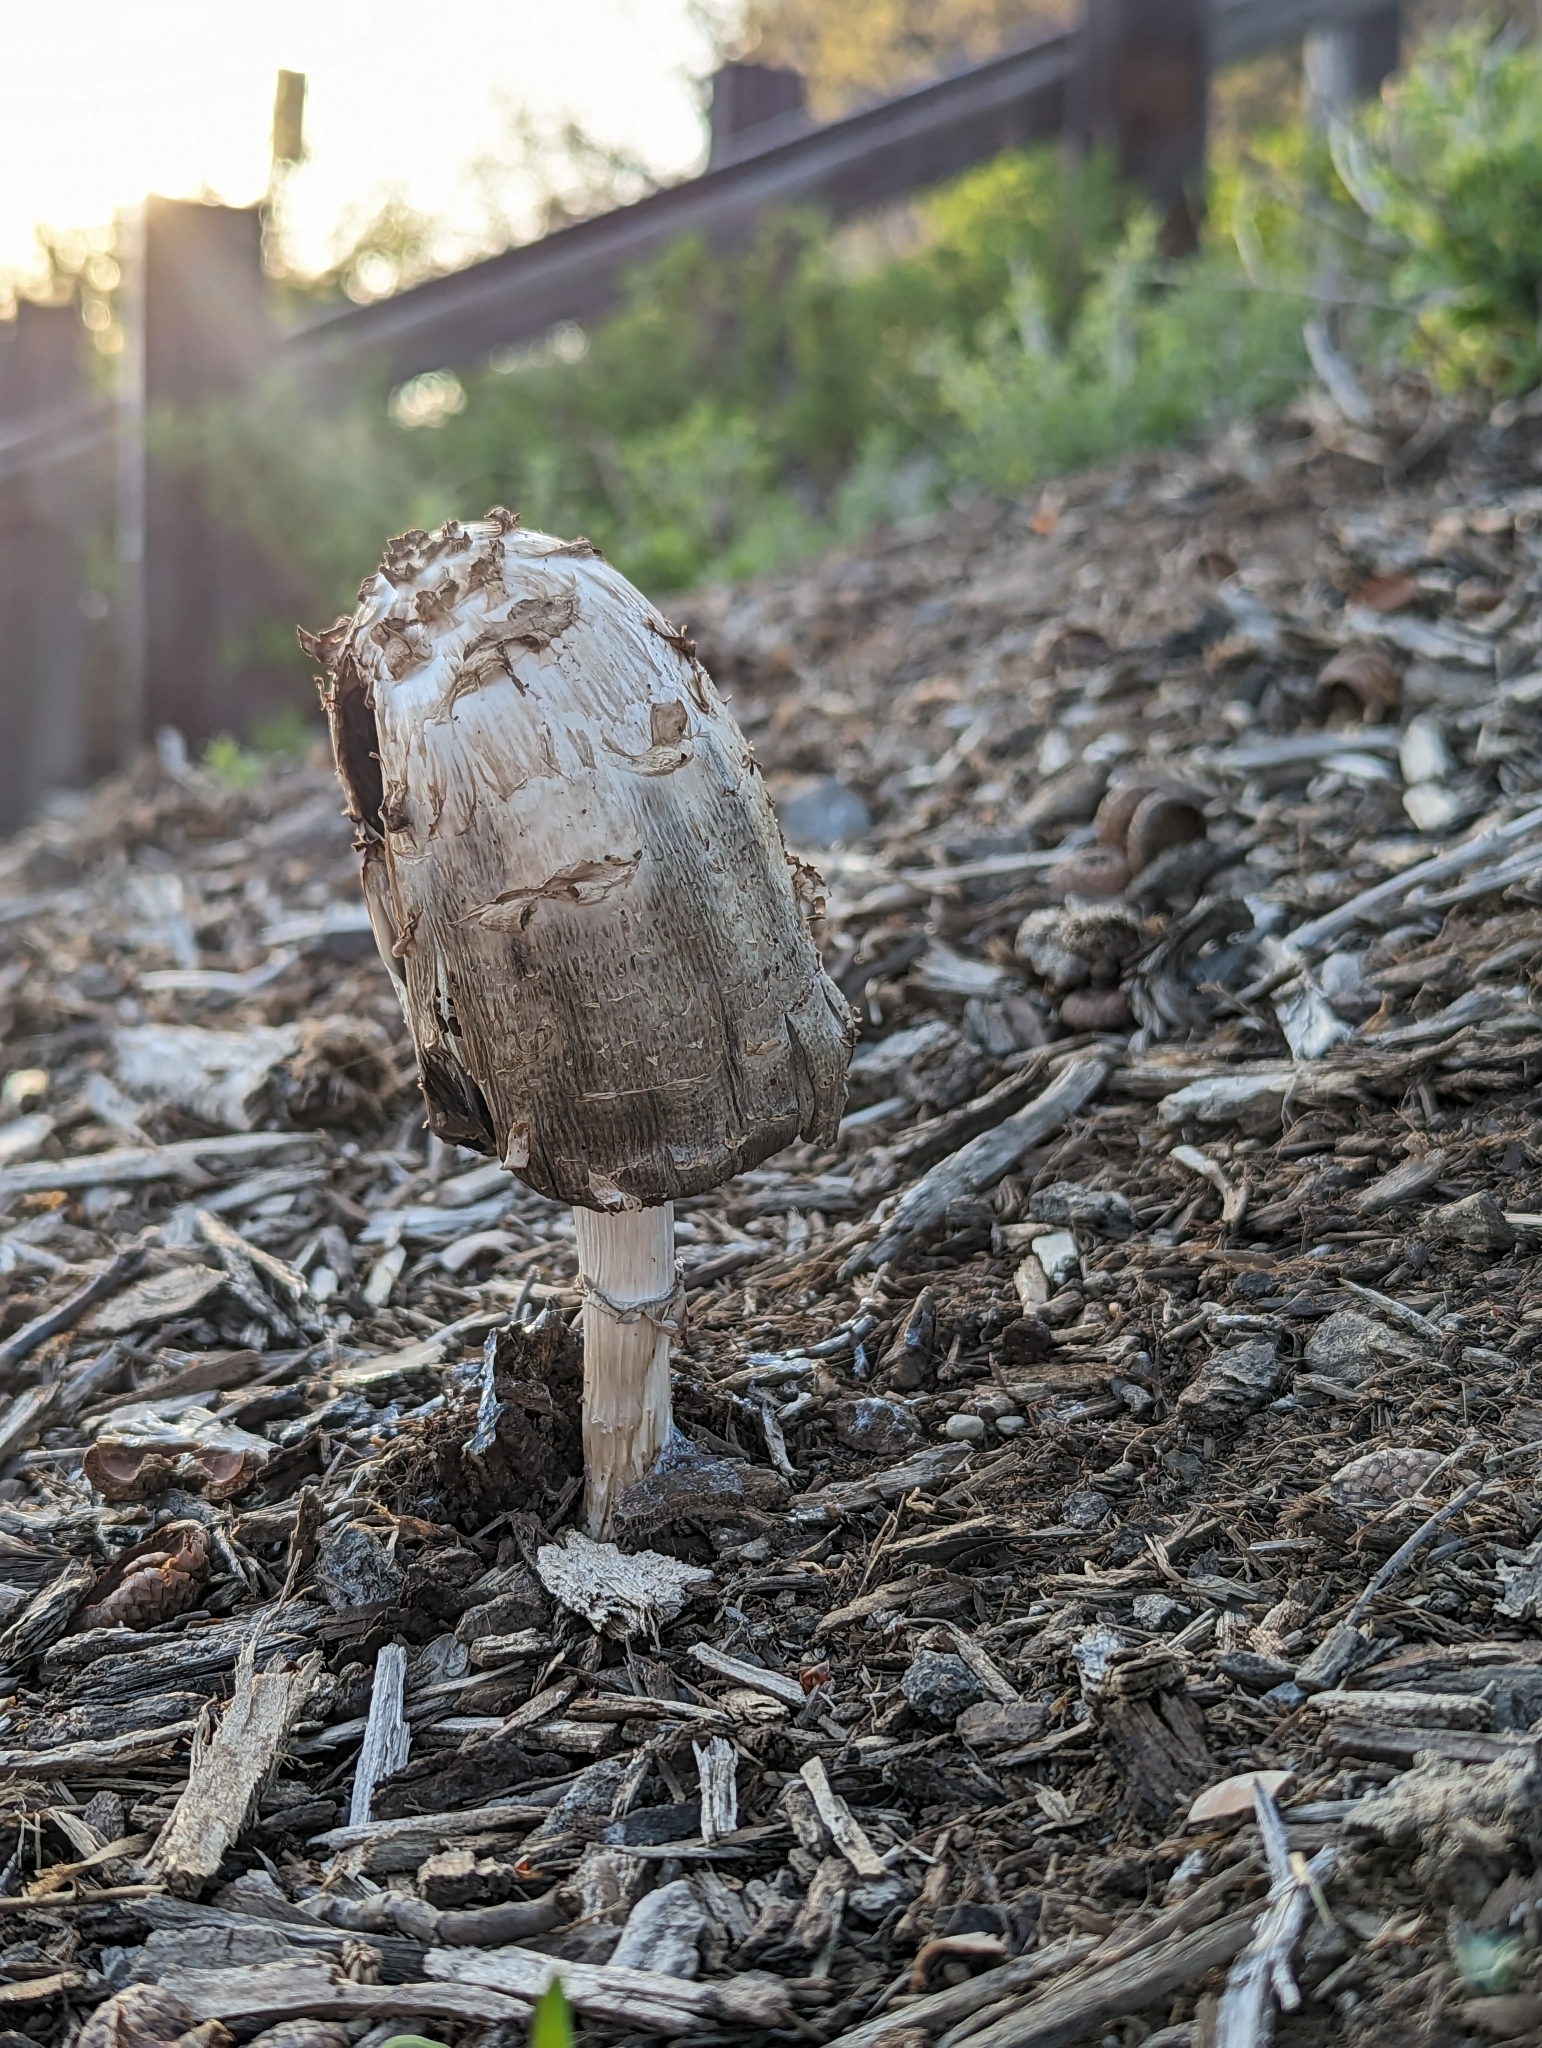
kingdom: Fungi
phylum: Basidiomycota
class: Agaricomycetes
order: Agaricales
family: Agaricaceae
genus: Coprinus
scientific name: Coprinus comatus
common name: Lawyer's wig
